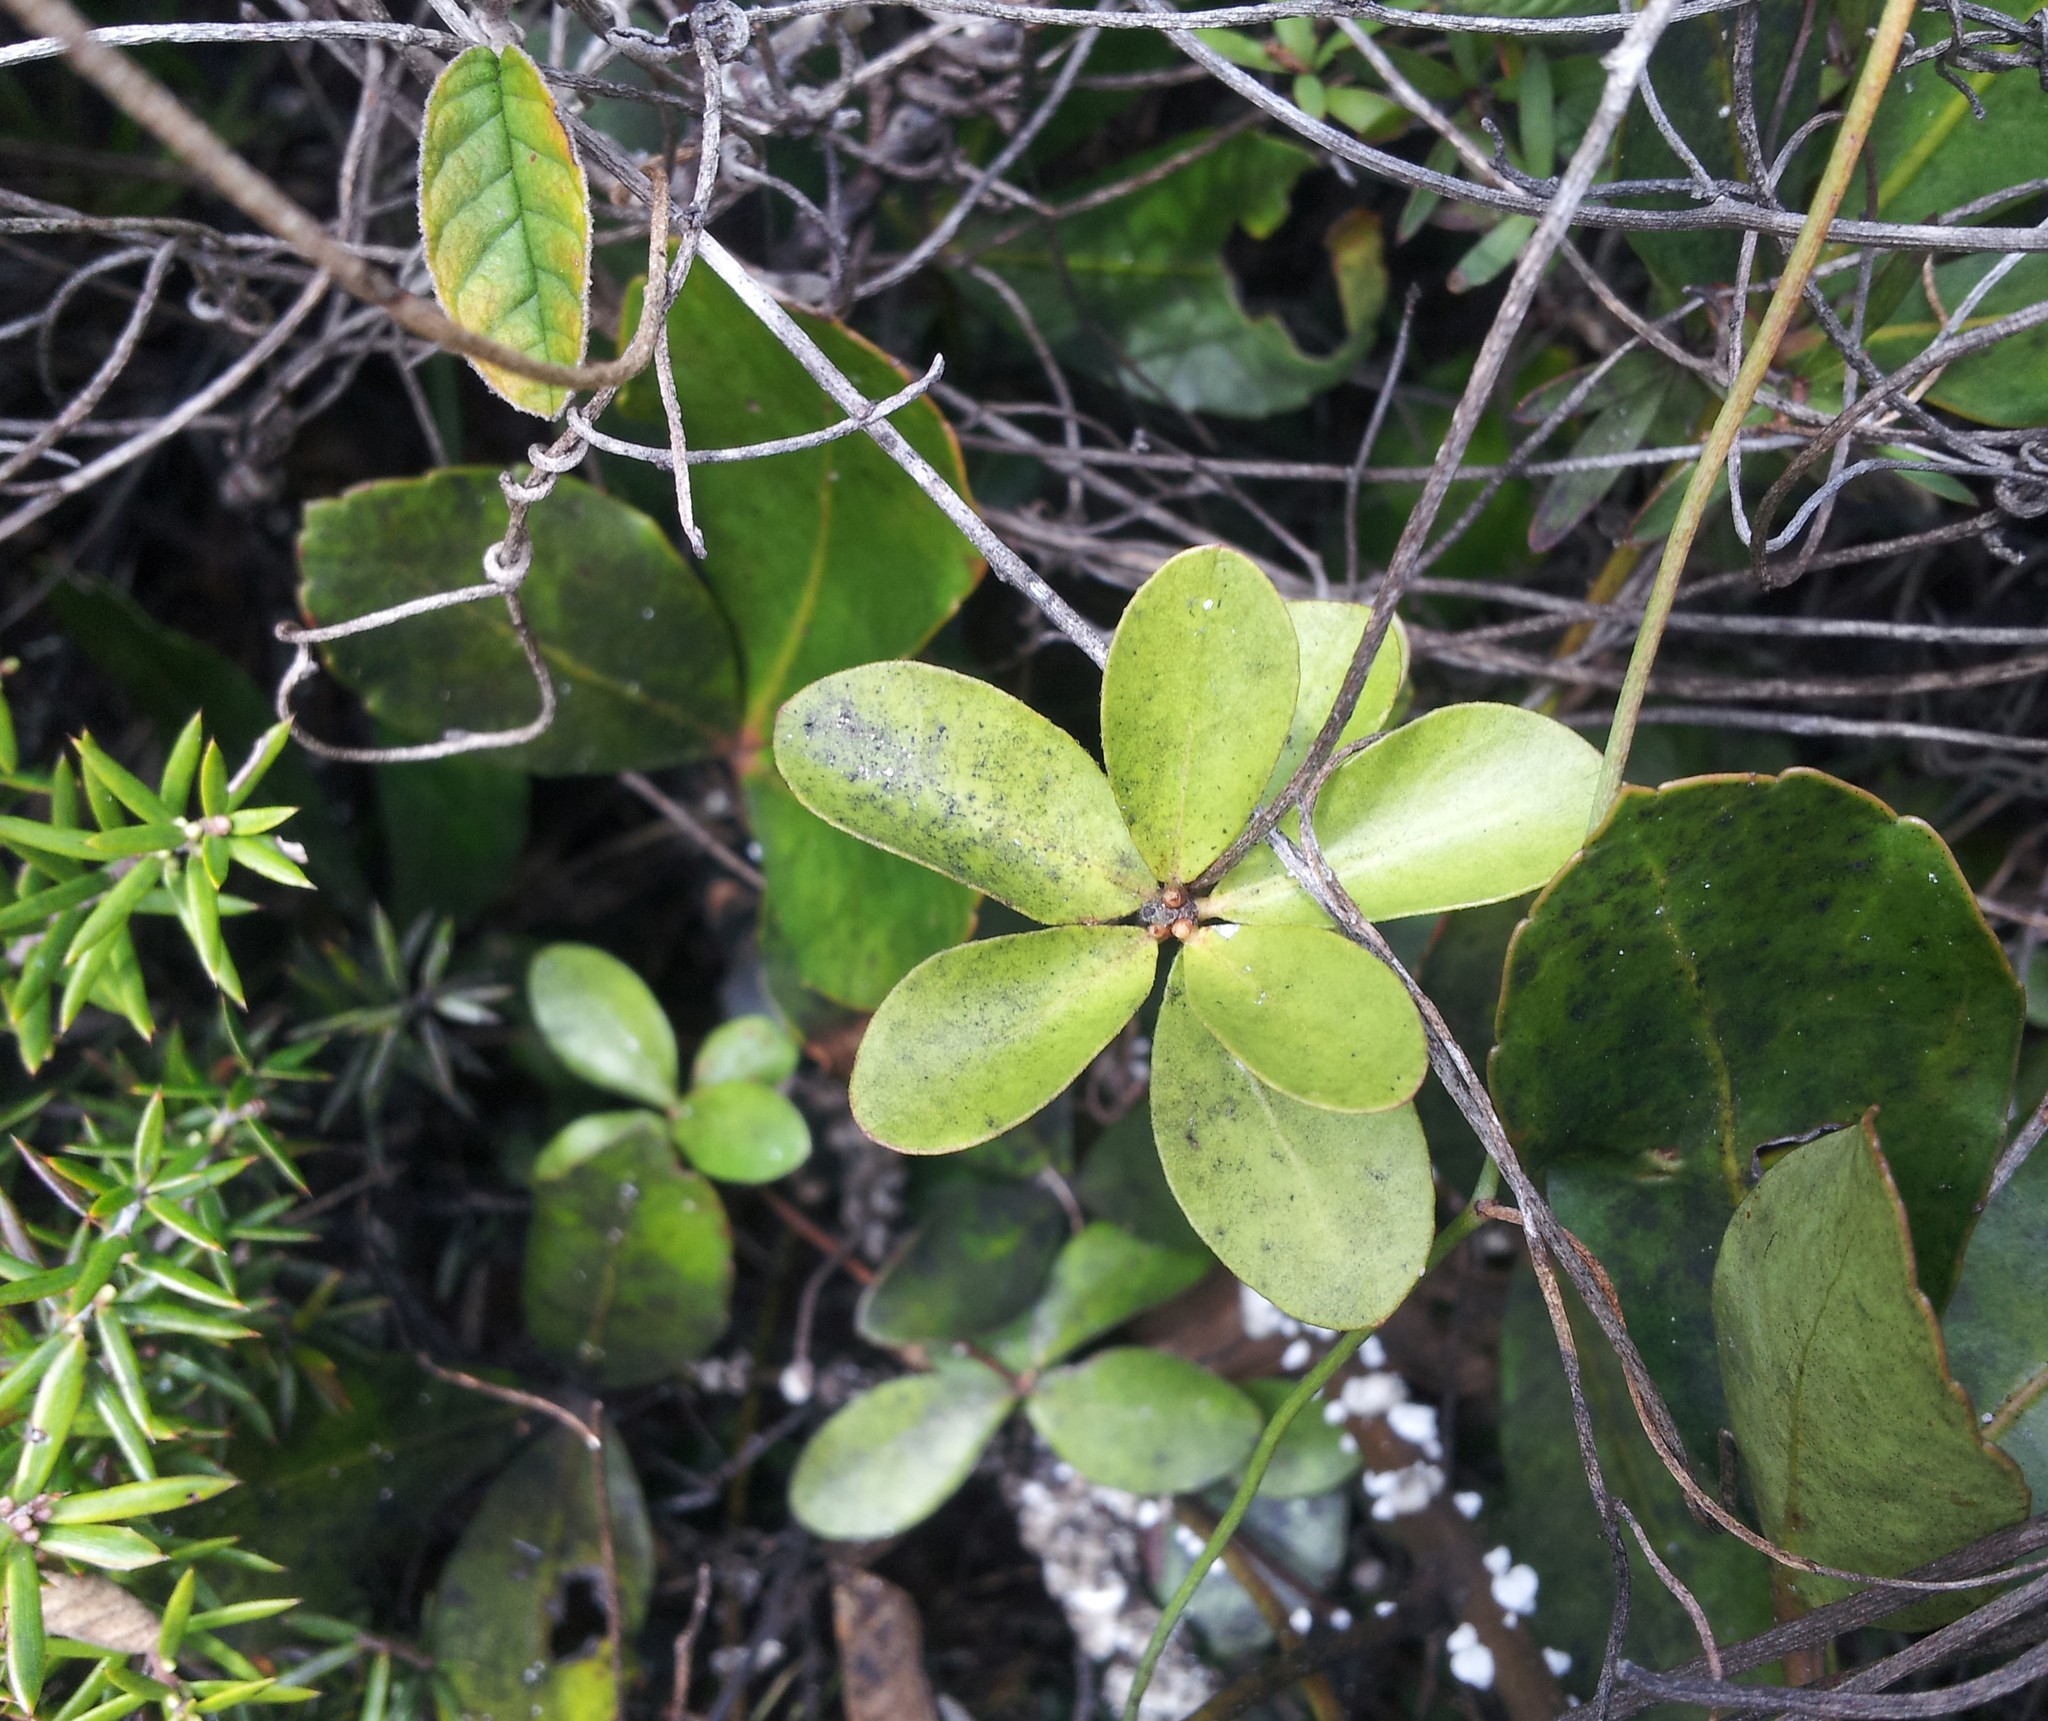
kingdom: Plantae
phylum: Tracheophyta
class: Magnoliopsida
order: Apiales
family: Pittosporaceae
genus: Pittosporum
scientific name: Pittosporum pimeleoides
